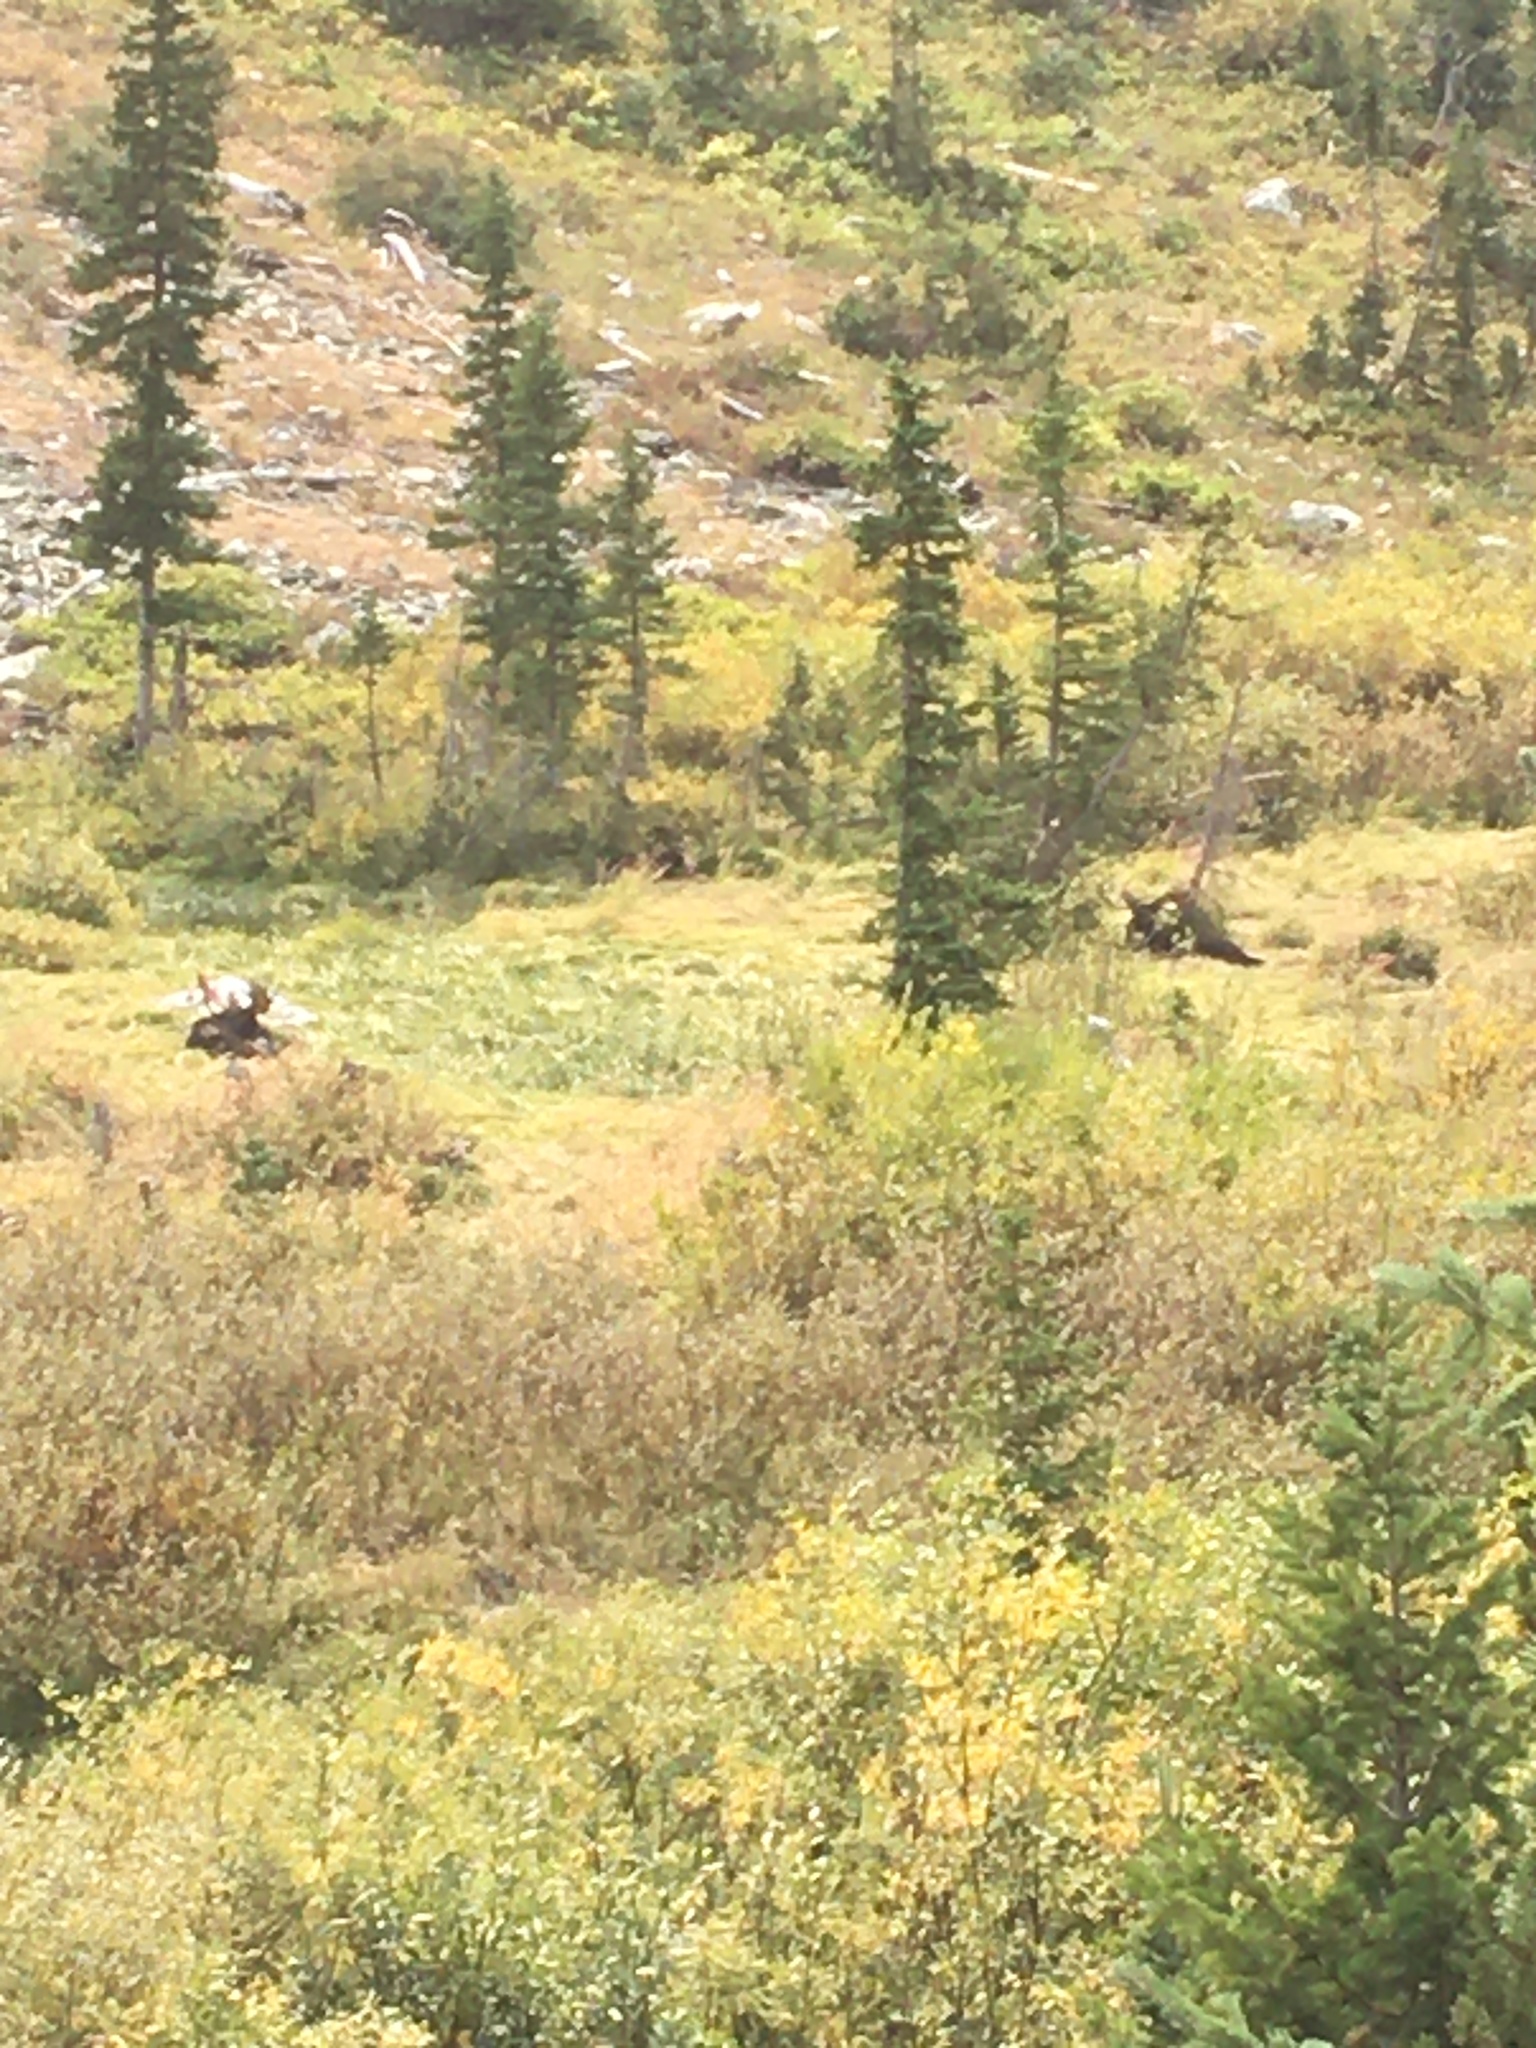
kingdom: Animalia
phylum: Chordata
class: Mammalia
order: Artiodactyla
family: Cervidae
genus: Alces
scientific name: Alces alces
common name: Moose
